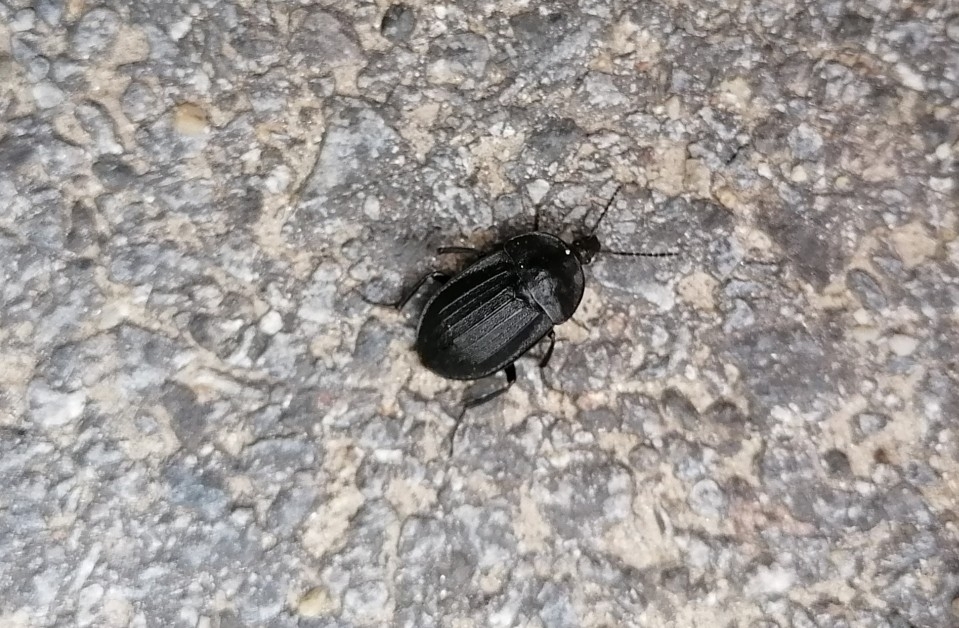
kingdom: Animalia
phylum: Arthropoda
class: Insecta
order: Coleoptera
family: Staphylinidae
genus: Silpha
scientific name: Silpha atrata
